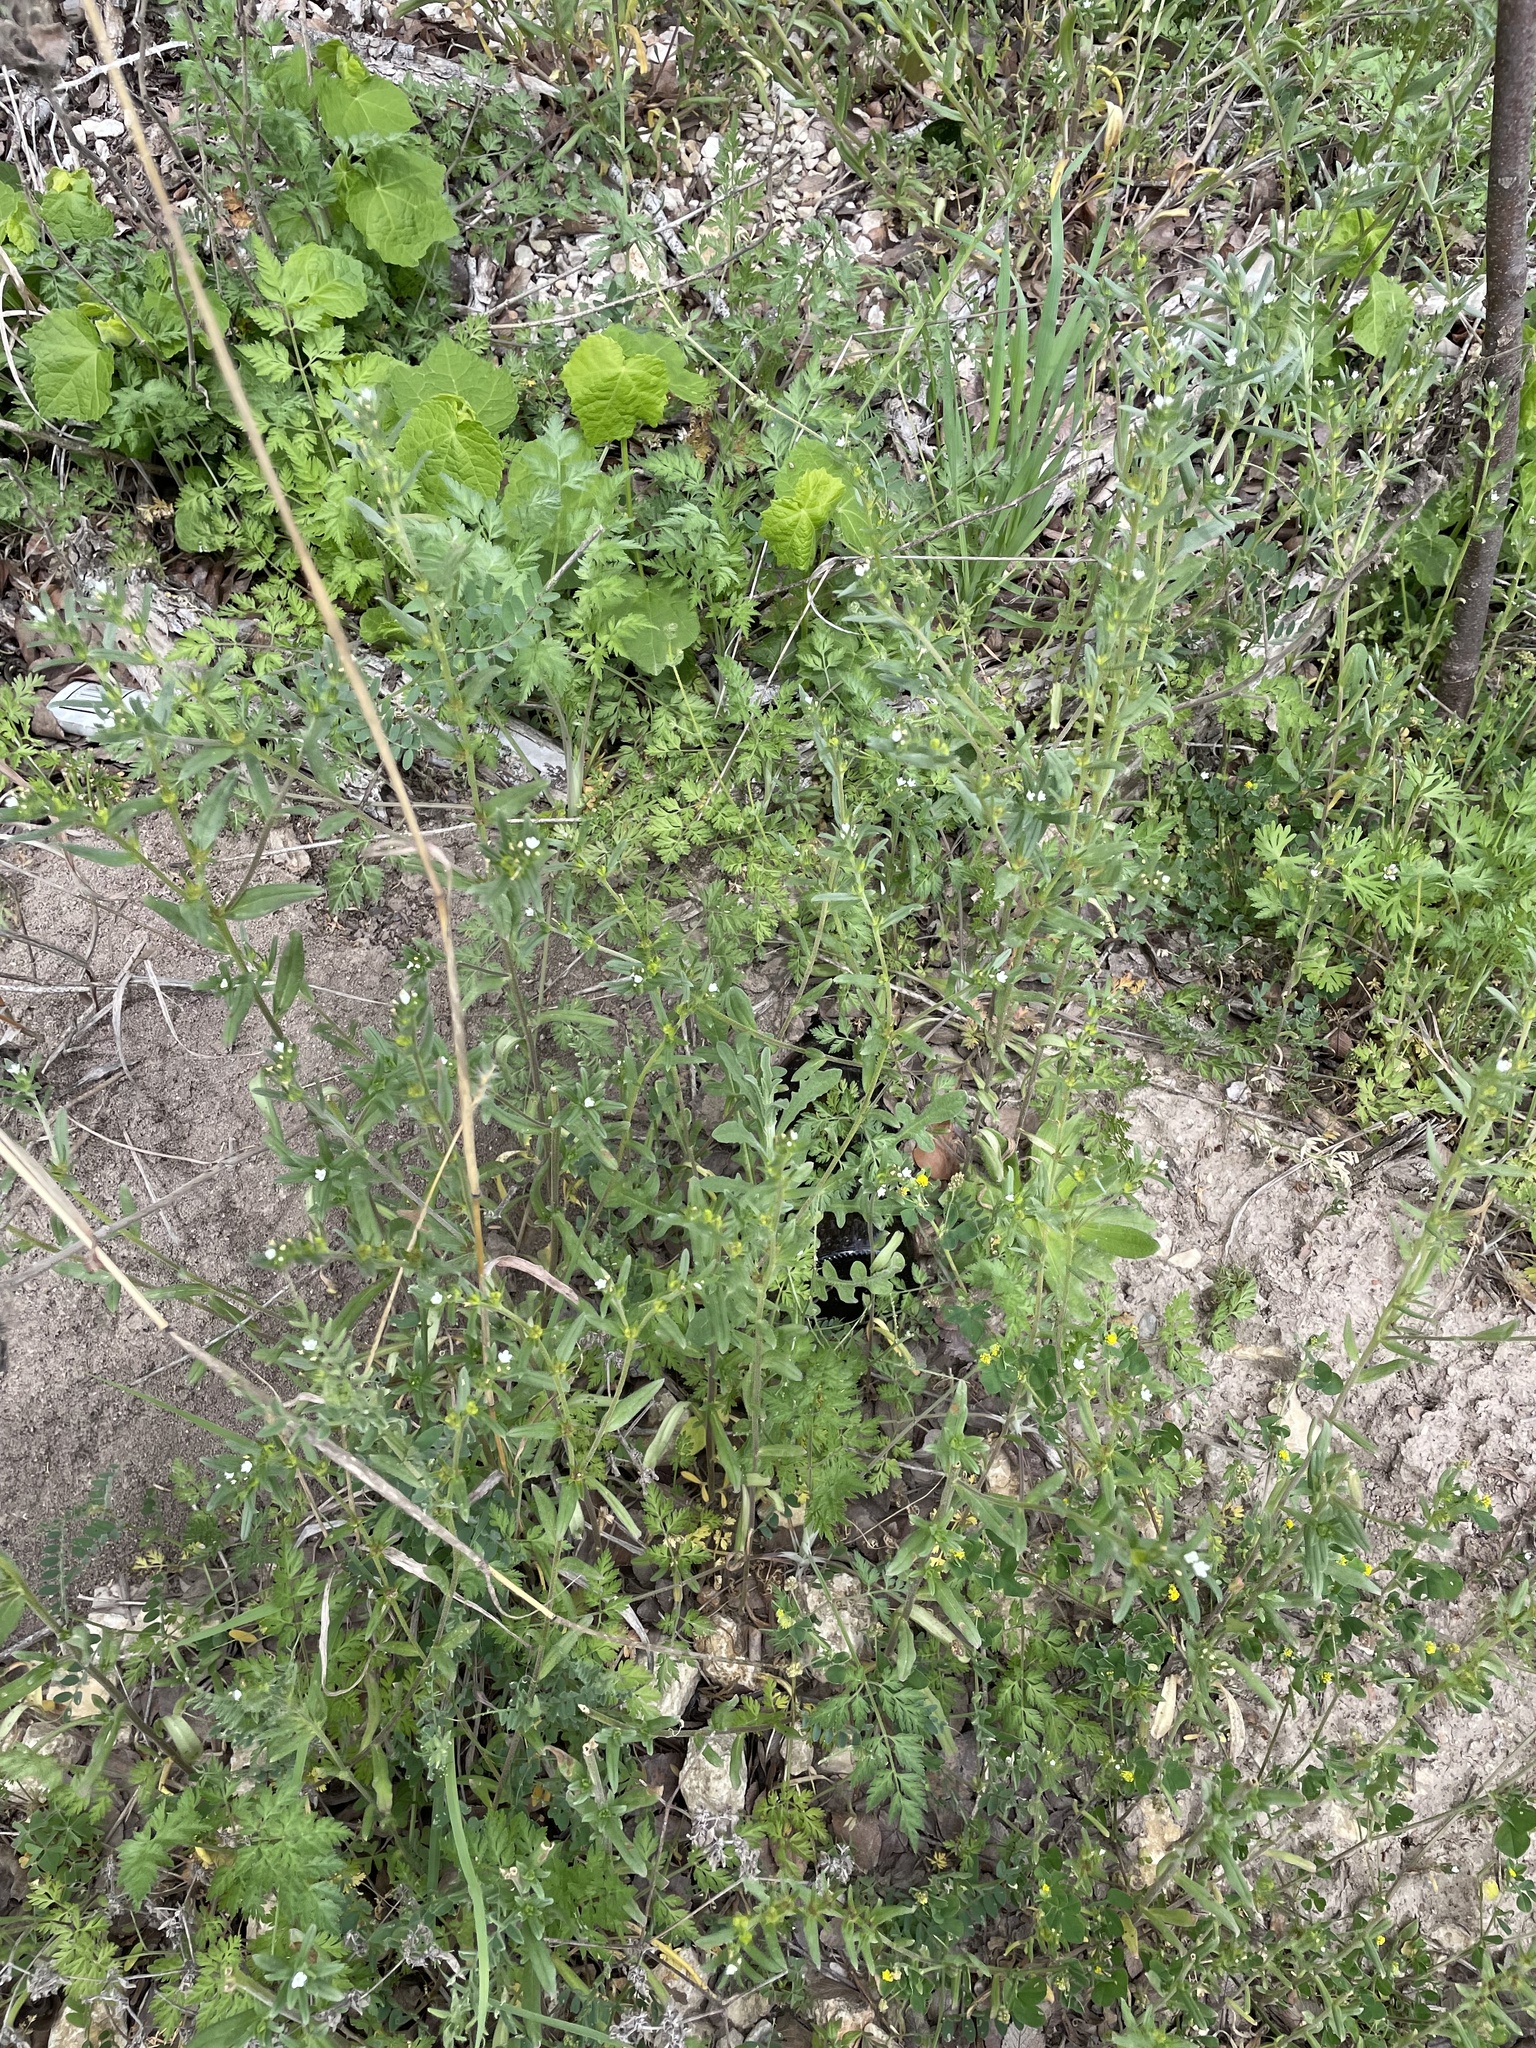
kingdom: Plantae
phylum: Tracheophyta
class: Magnoliopsida
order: Boraginales
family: Boraginaceae
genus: Buglossoides
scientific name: Buglossoides arvensis
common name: Corn gromwell
